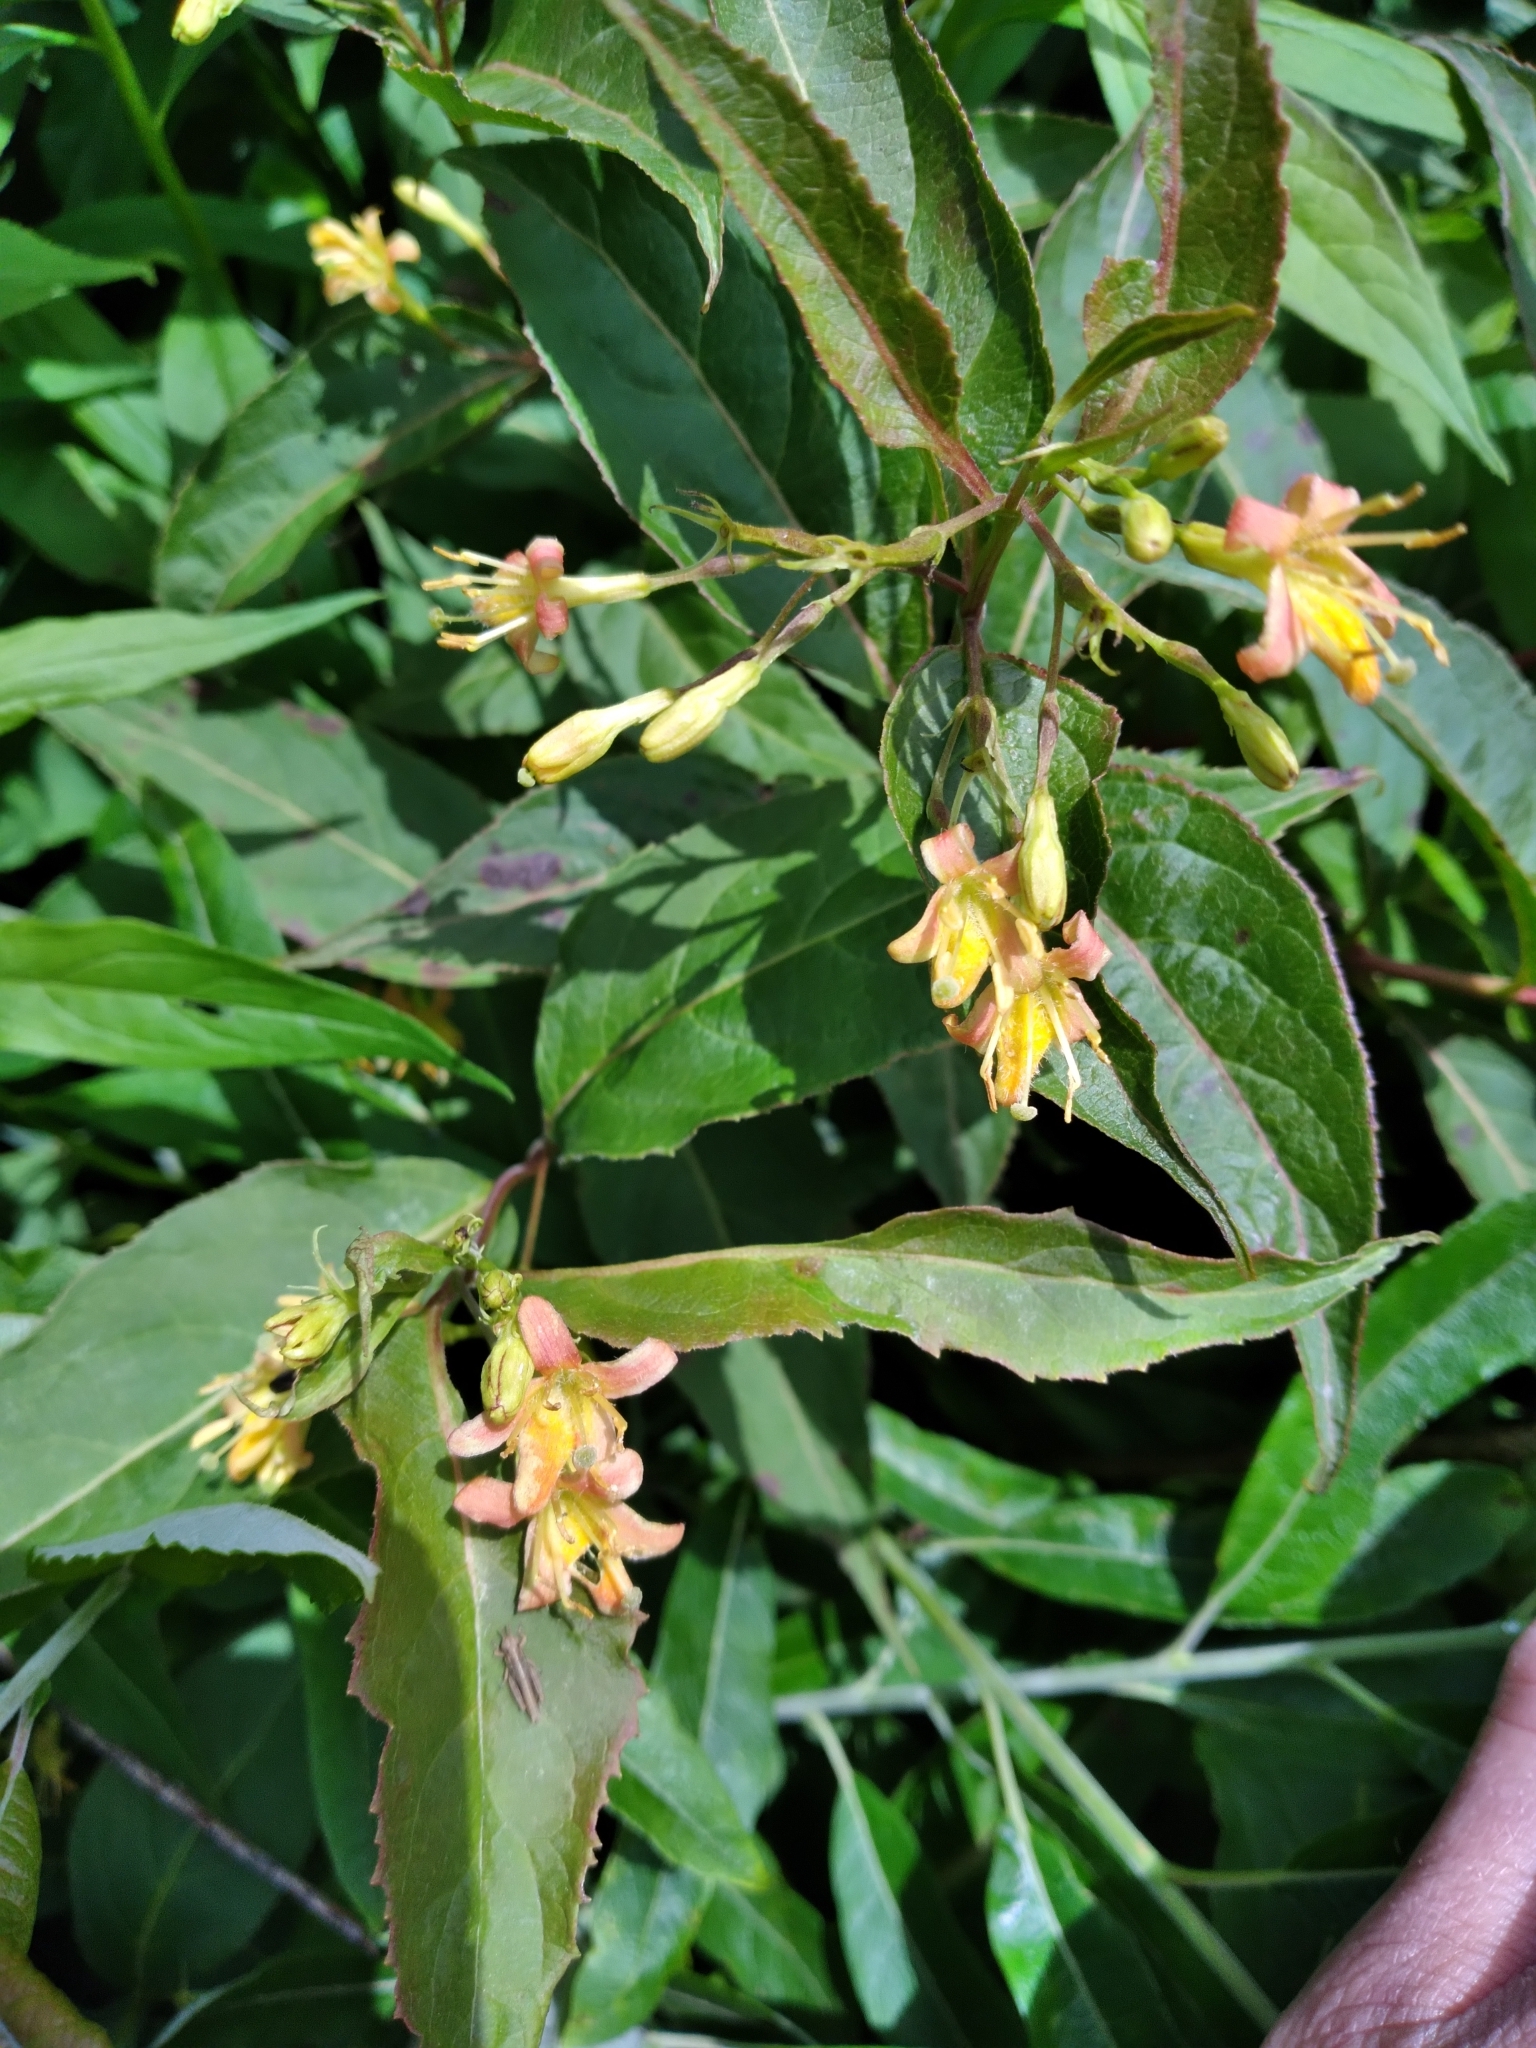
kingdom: Plantae
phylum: Tracheophyta
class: Magnoliopsida
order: Dipsacales
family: Caprifoliaceae
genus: Diervilla
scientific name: Diervilla lonicera
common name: Bush-honeysuckle
